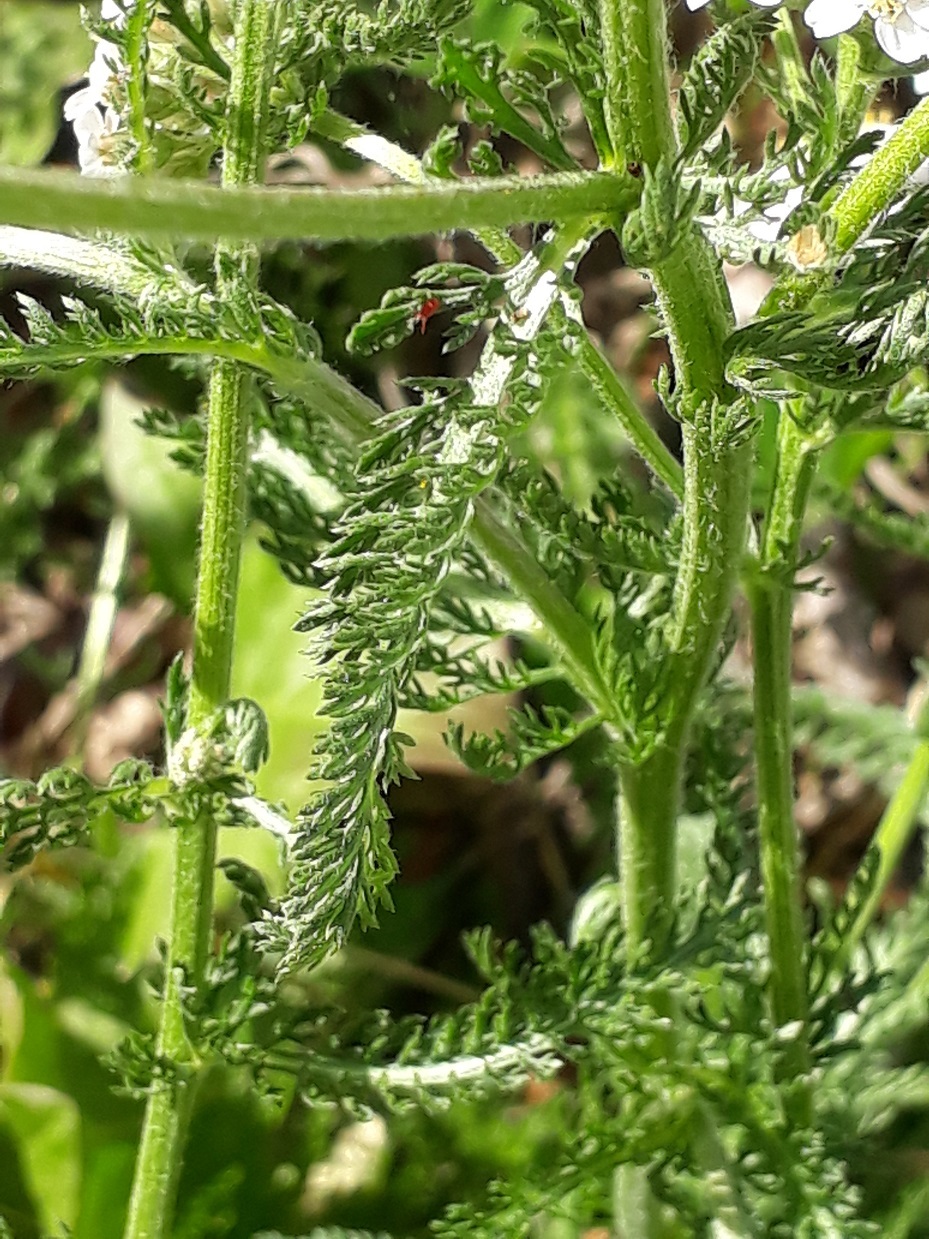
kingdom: Plantae
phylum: Tracheophyta
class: Magnoliopsida
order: Asterales
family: Asteraceae
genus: Achillea
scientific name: Achillea millefolium
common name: Yarrow
